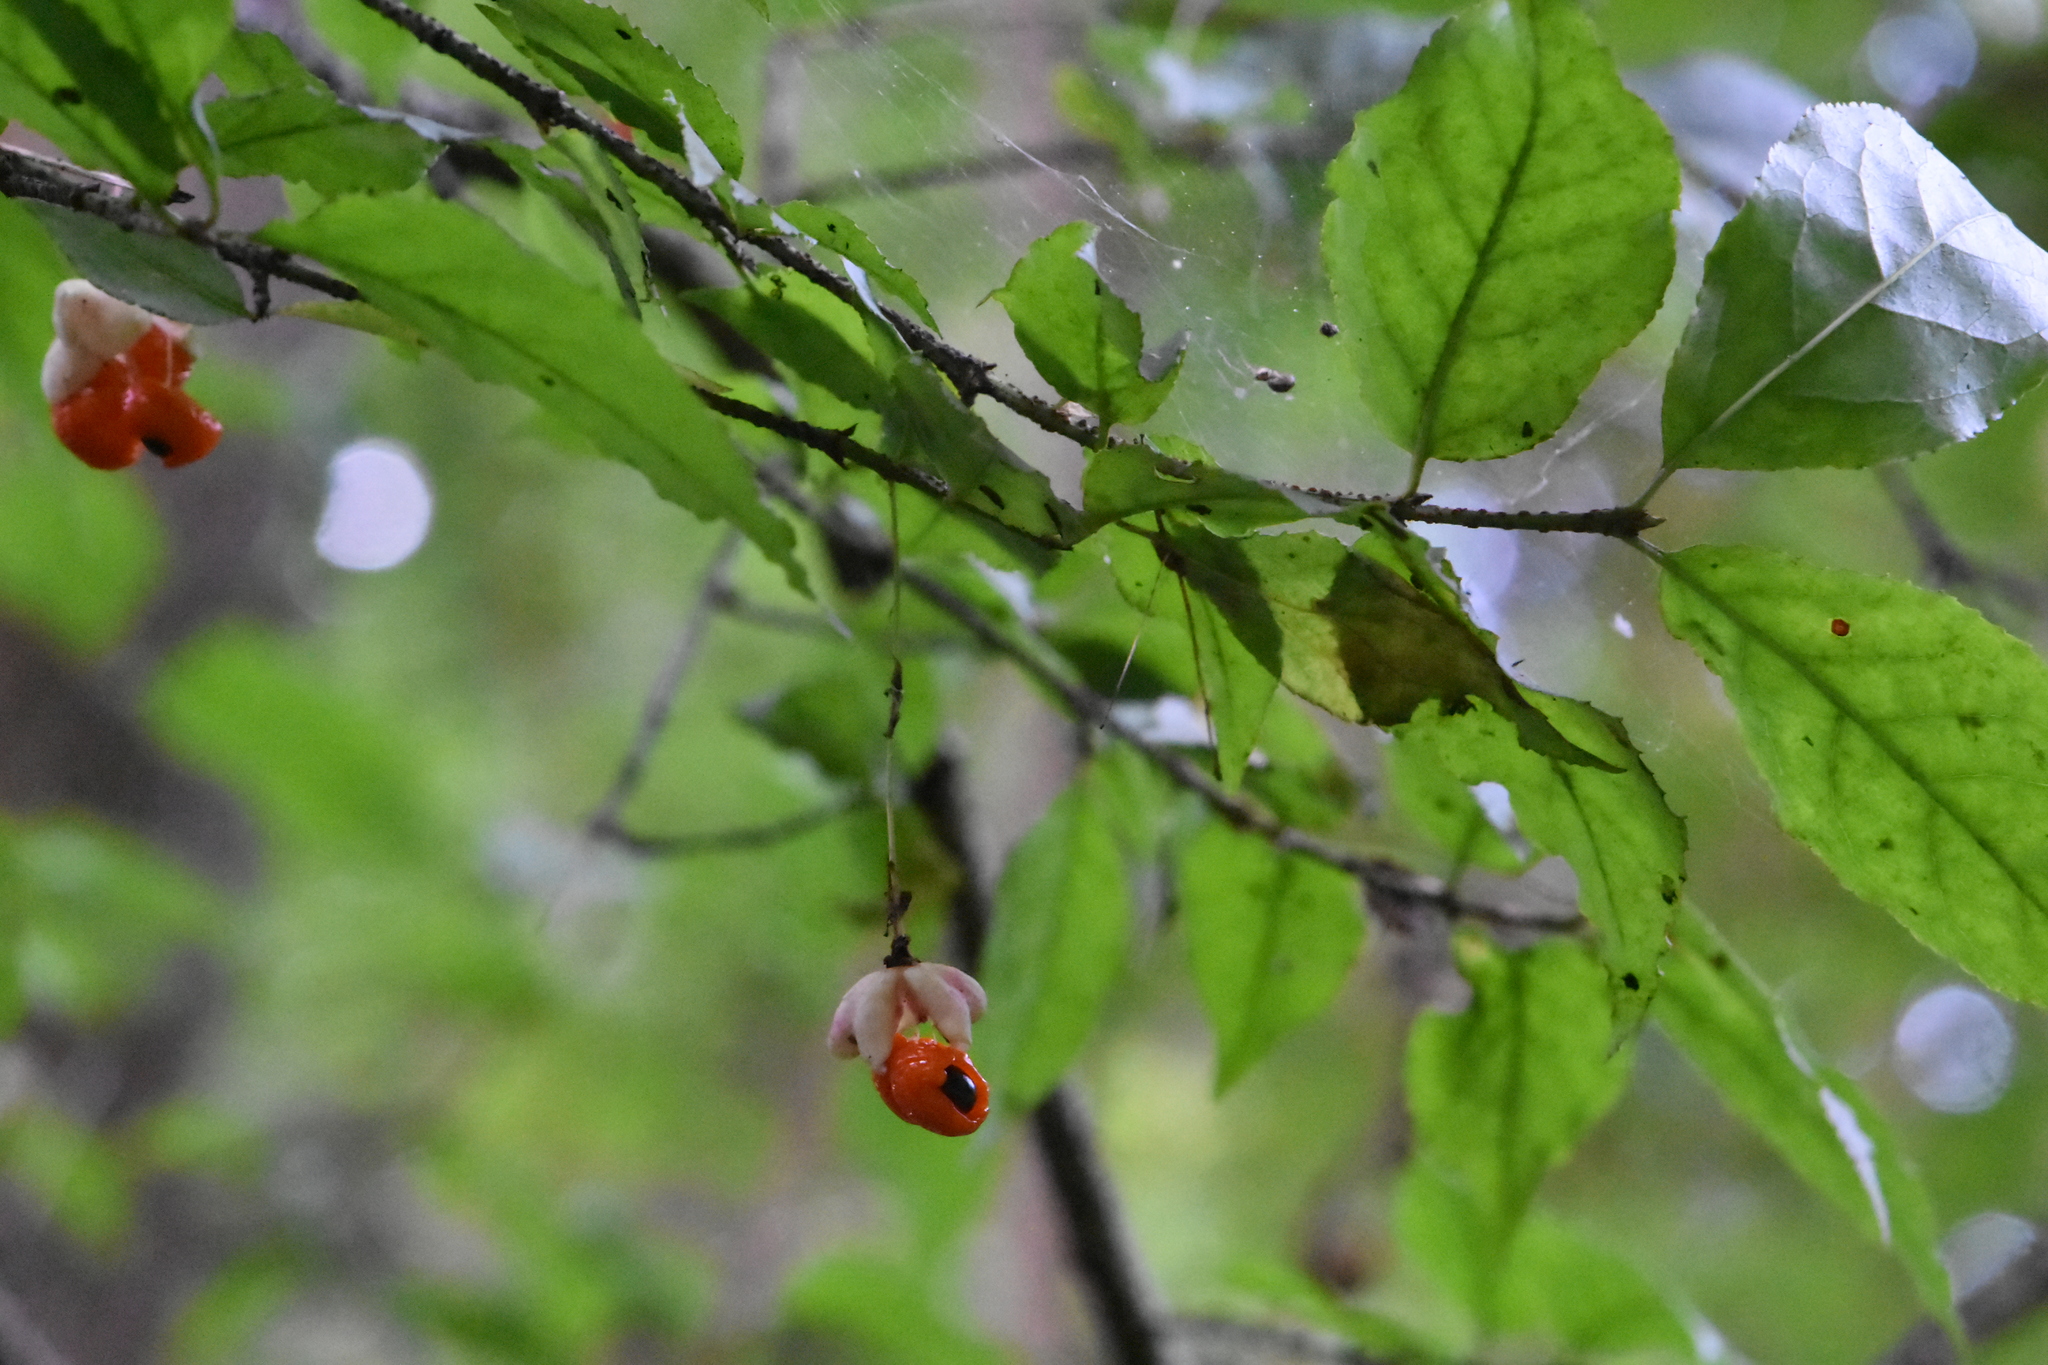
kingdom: Plantae
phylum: Tracheophyta
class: Magnoliopsida
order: Celastrales
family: Celastraceae
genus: Euonymus
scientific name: Euonymus verrucosus
